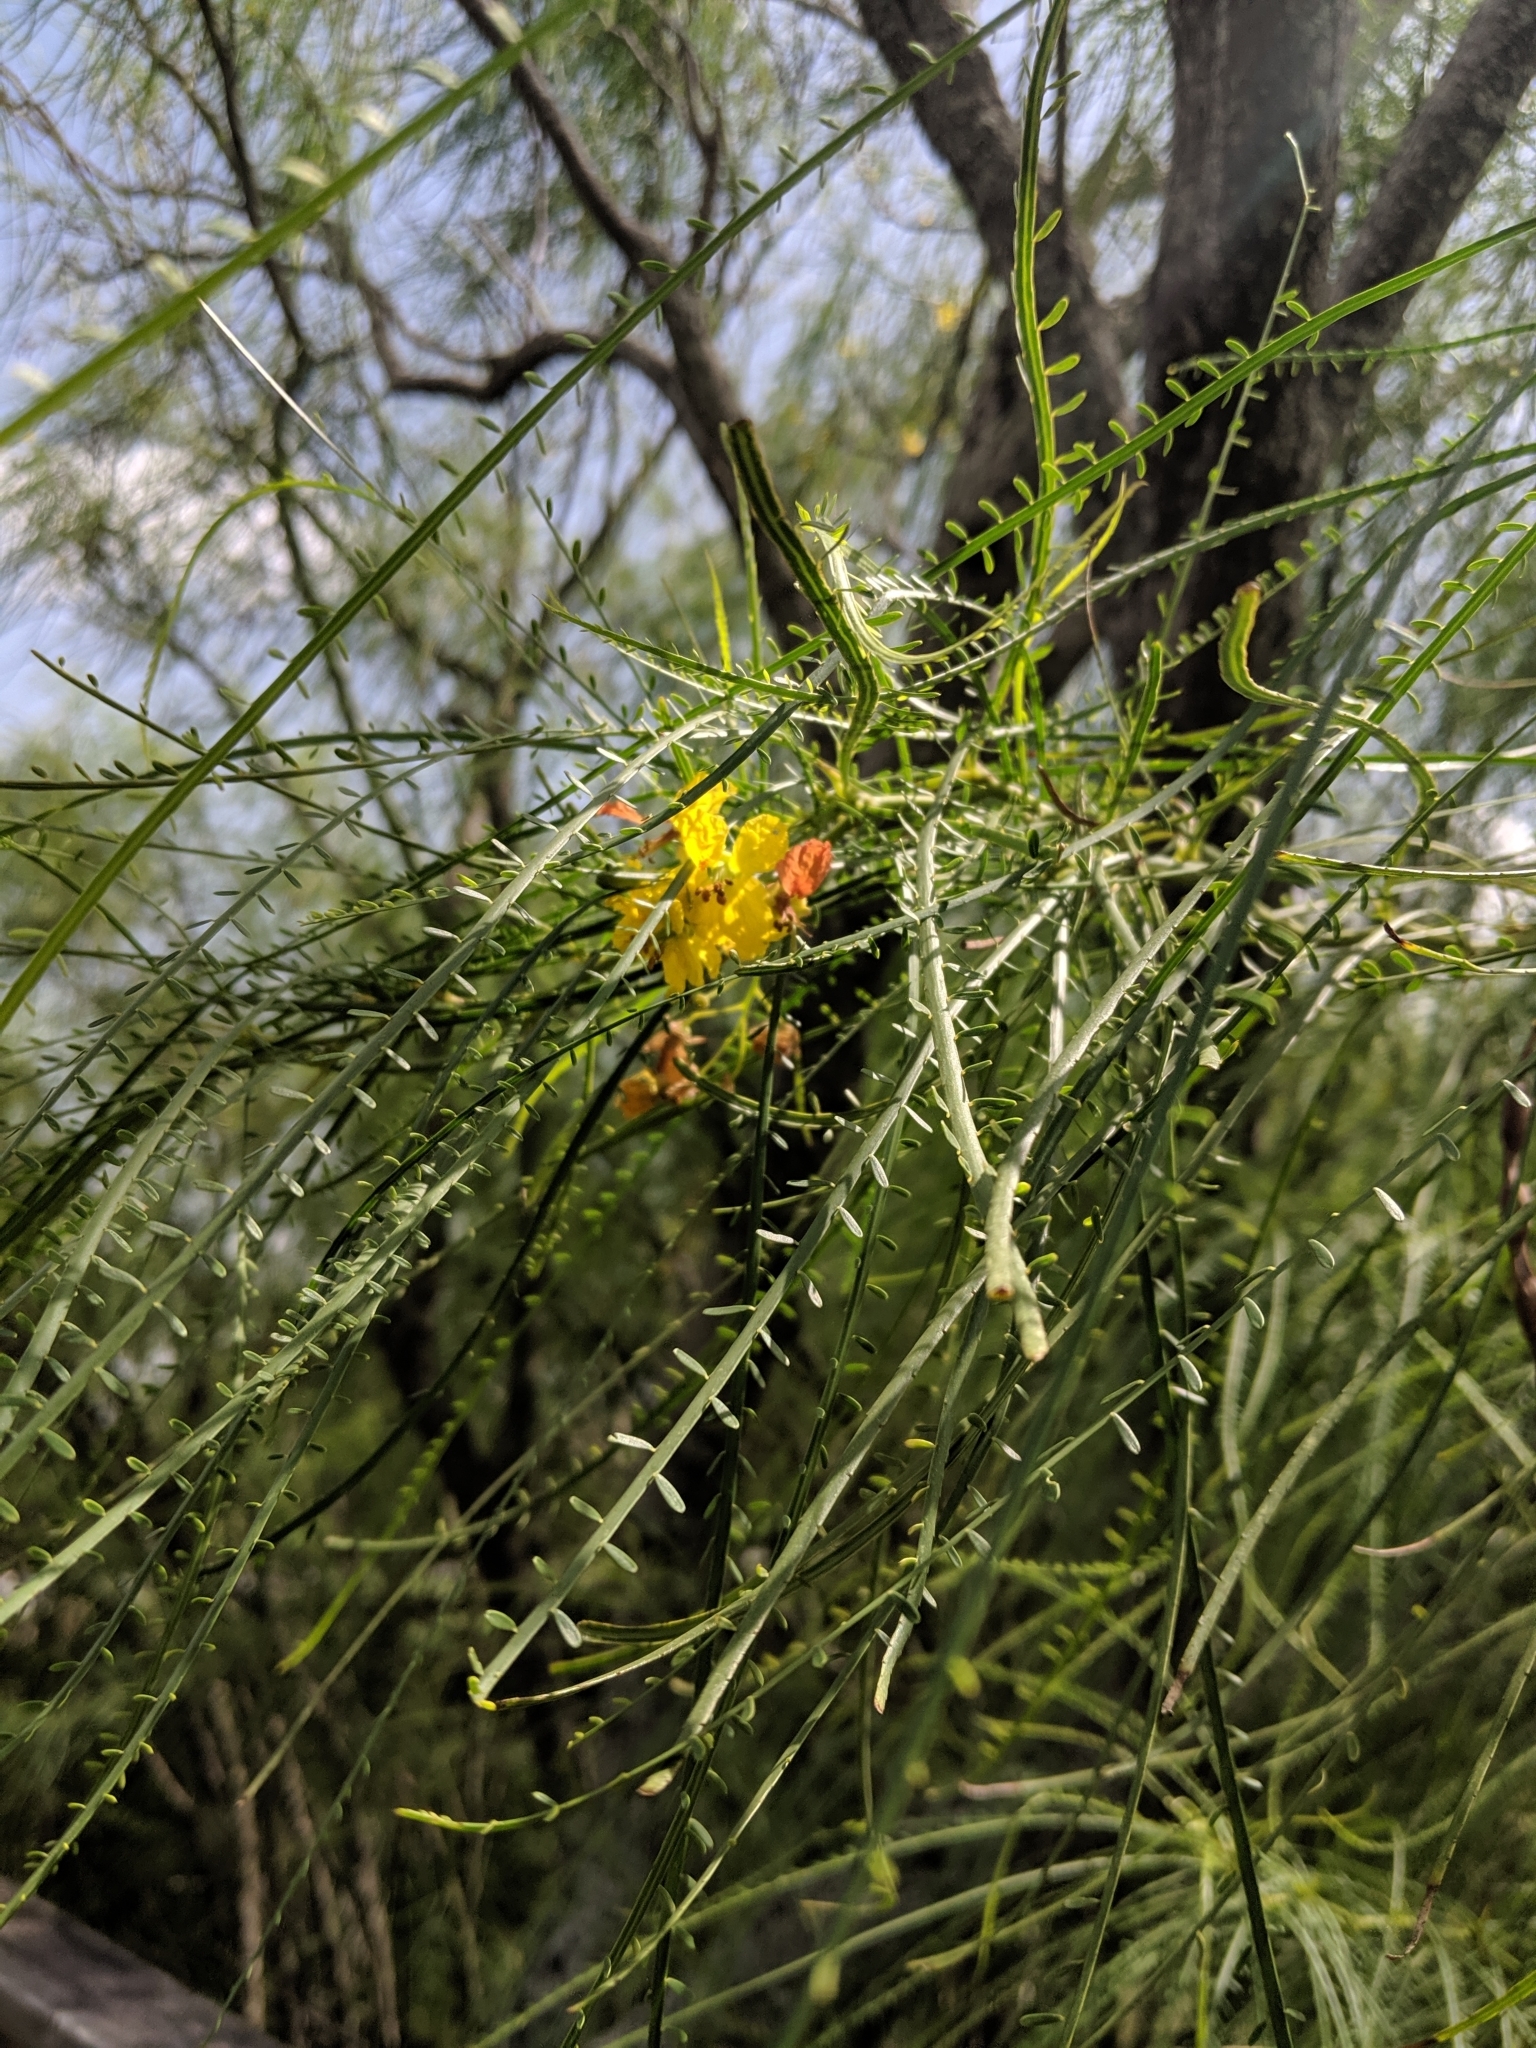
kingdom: Plantae
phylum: Tracheophyta
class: Magnoliopsida
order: Fabales
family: Fabaceae
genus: Parkinsonia
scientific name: Parkinsonia aculeata
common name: Jerusalem thorn
